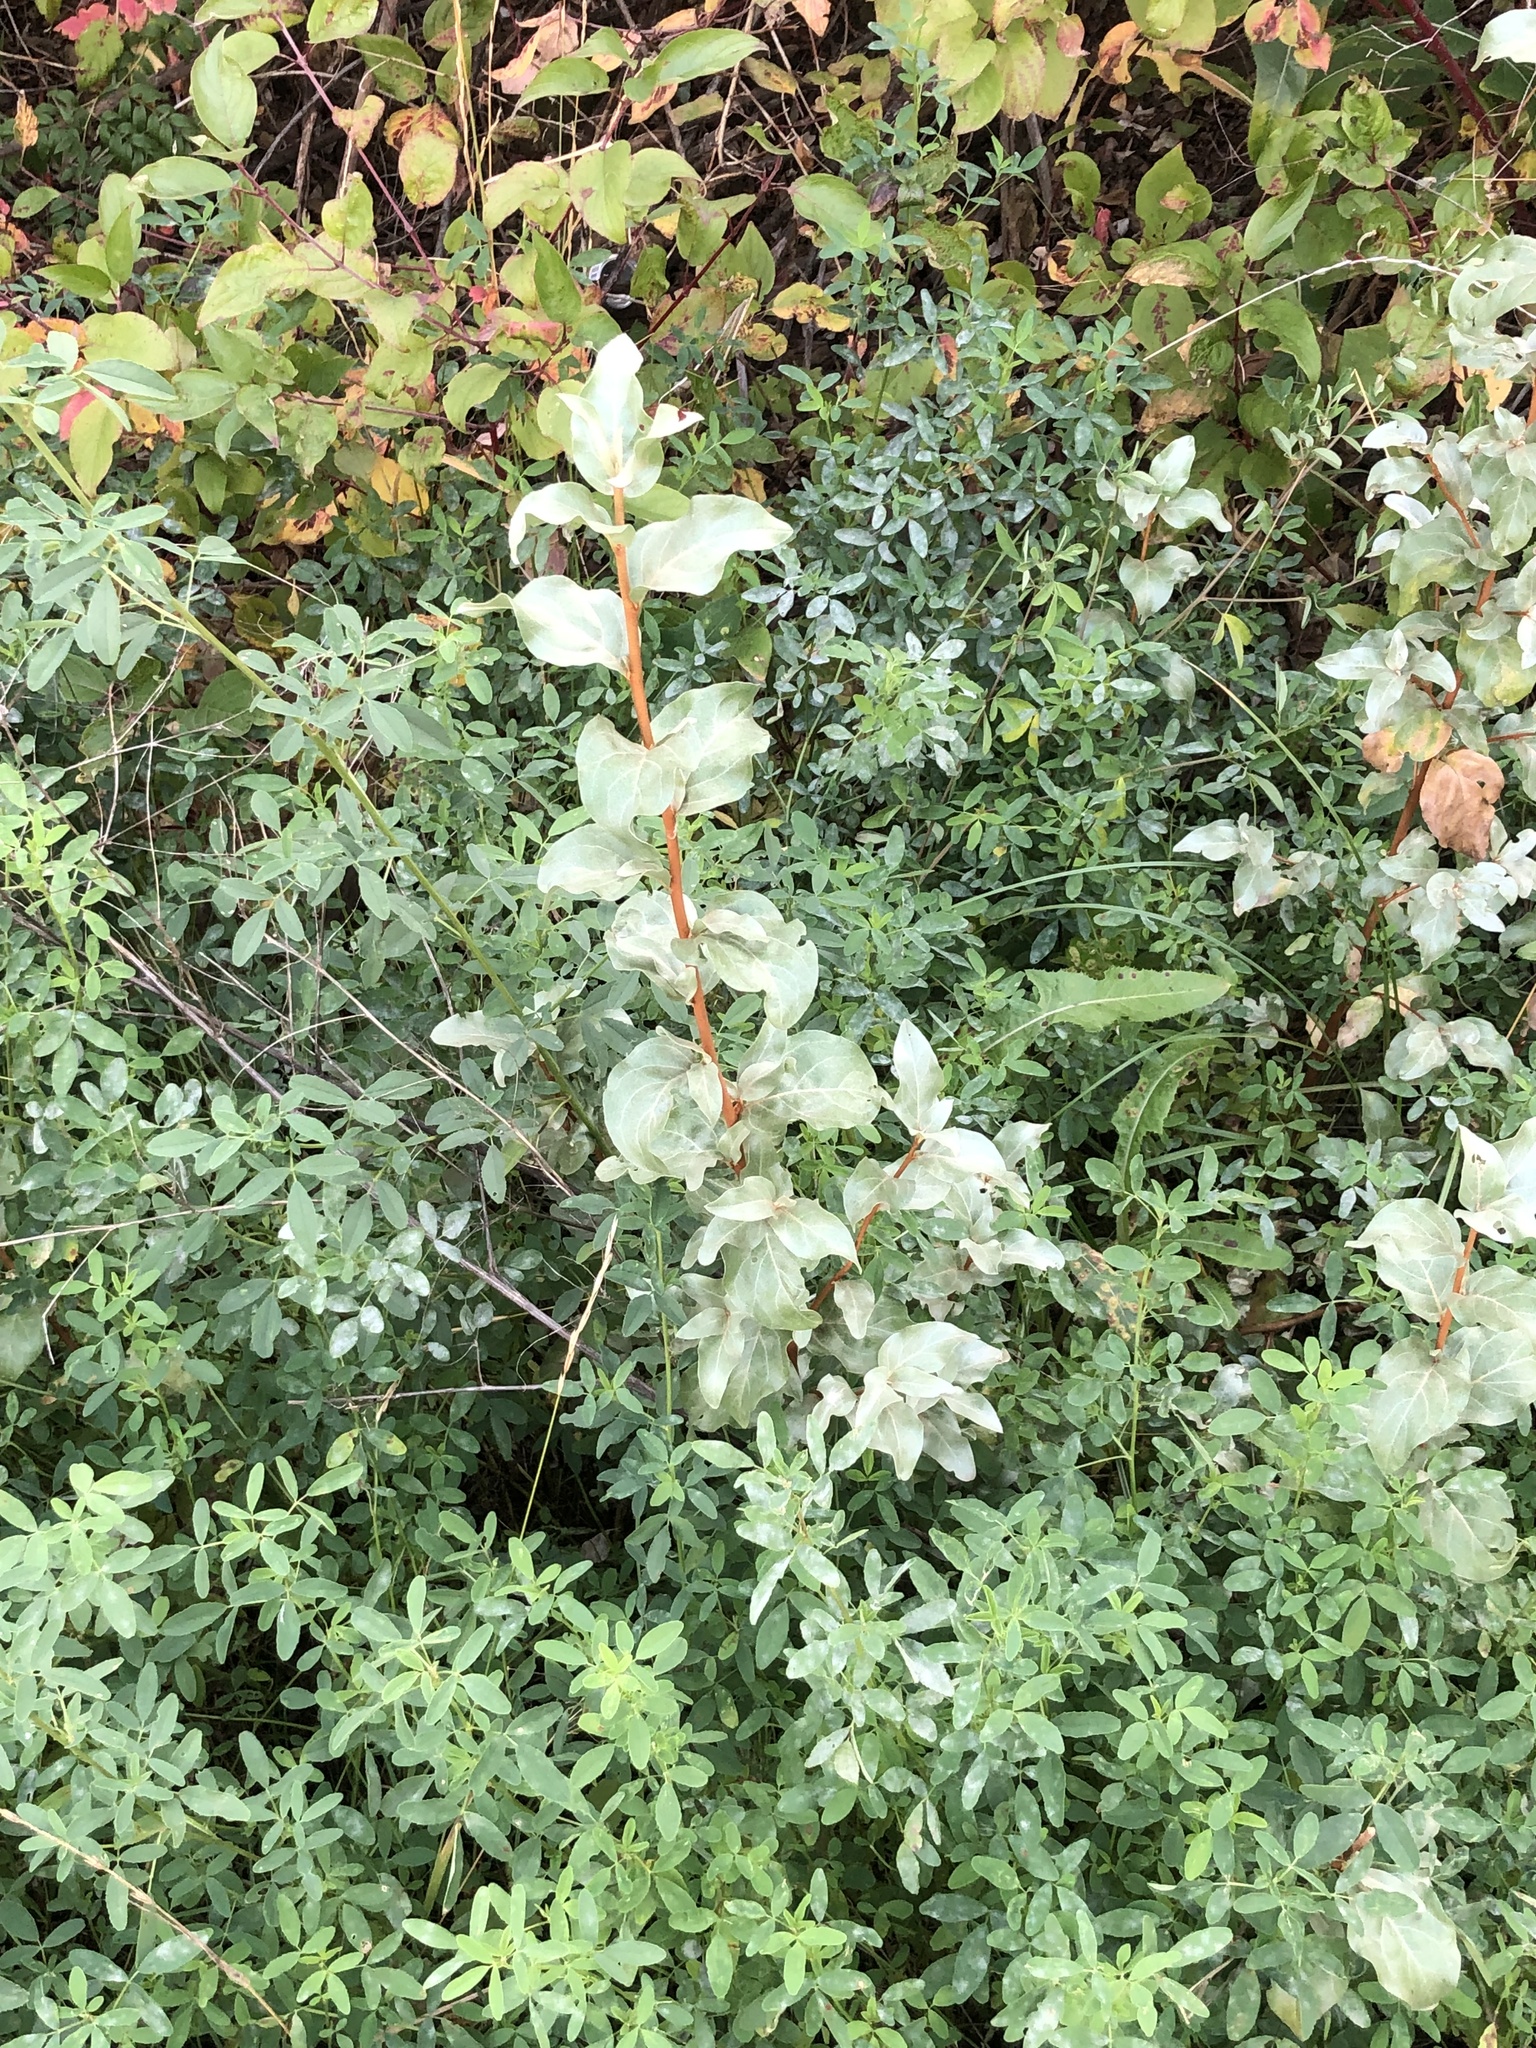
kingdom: Plantae
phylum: Tracheophyta
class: Magnoliopsida
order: Rosales
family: Elaeagnaceae
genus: Elaeagnus
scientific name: Elaeagnus commutata
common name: Silverberry
